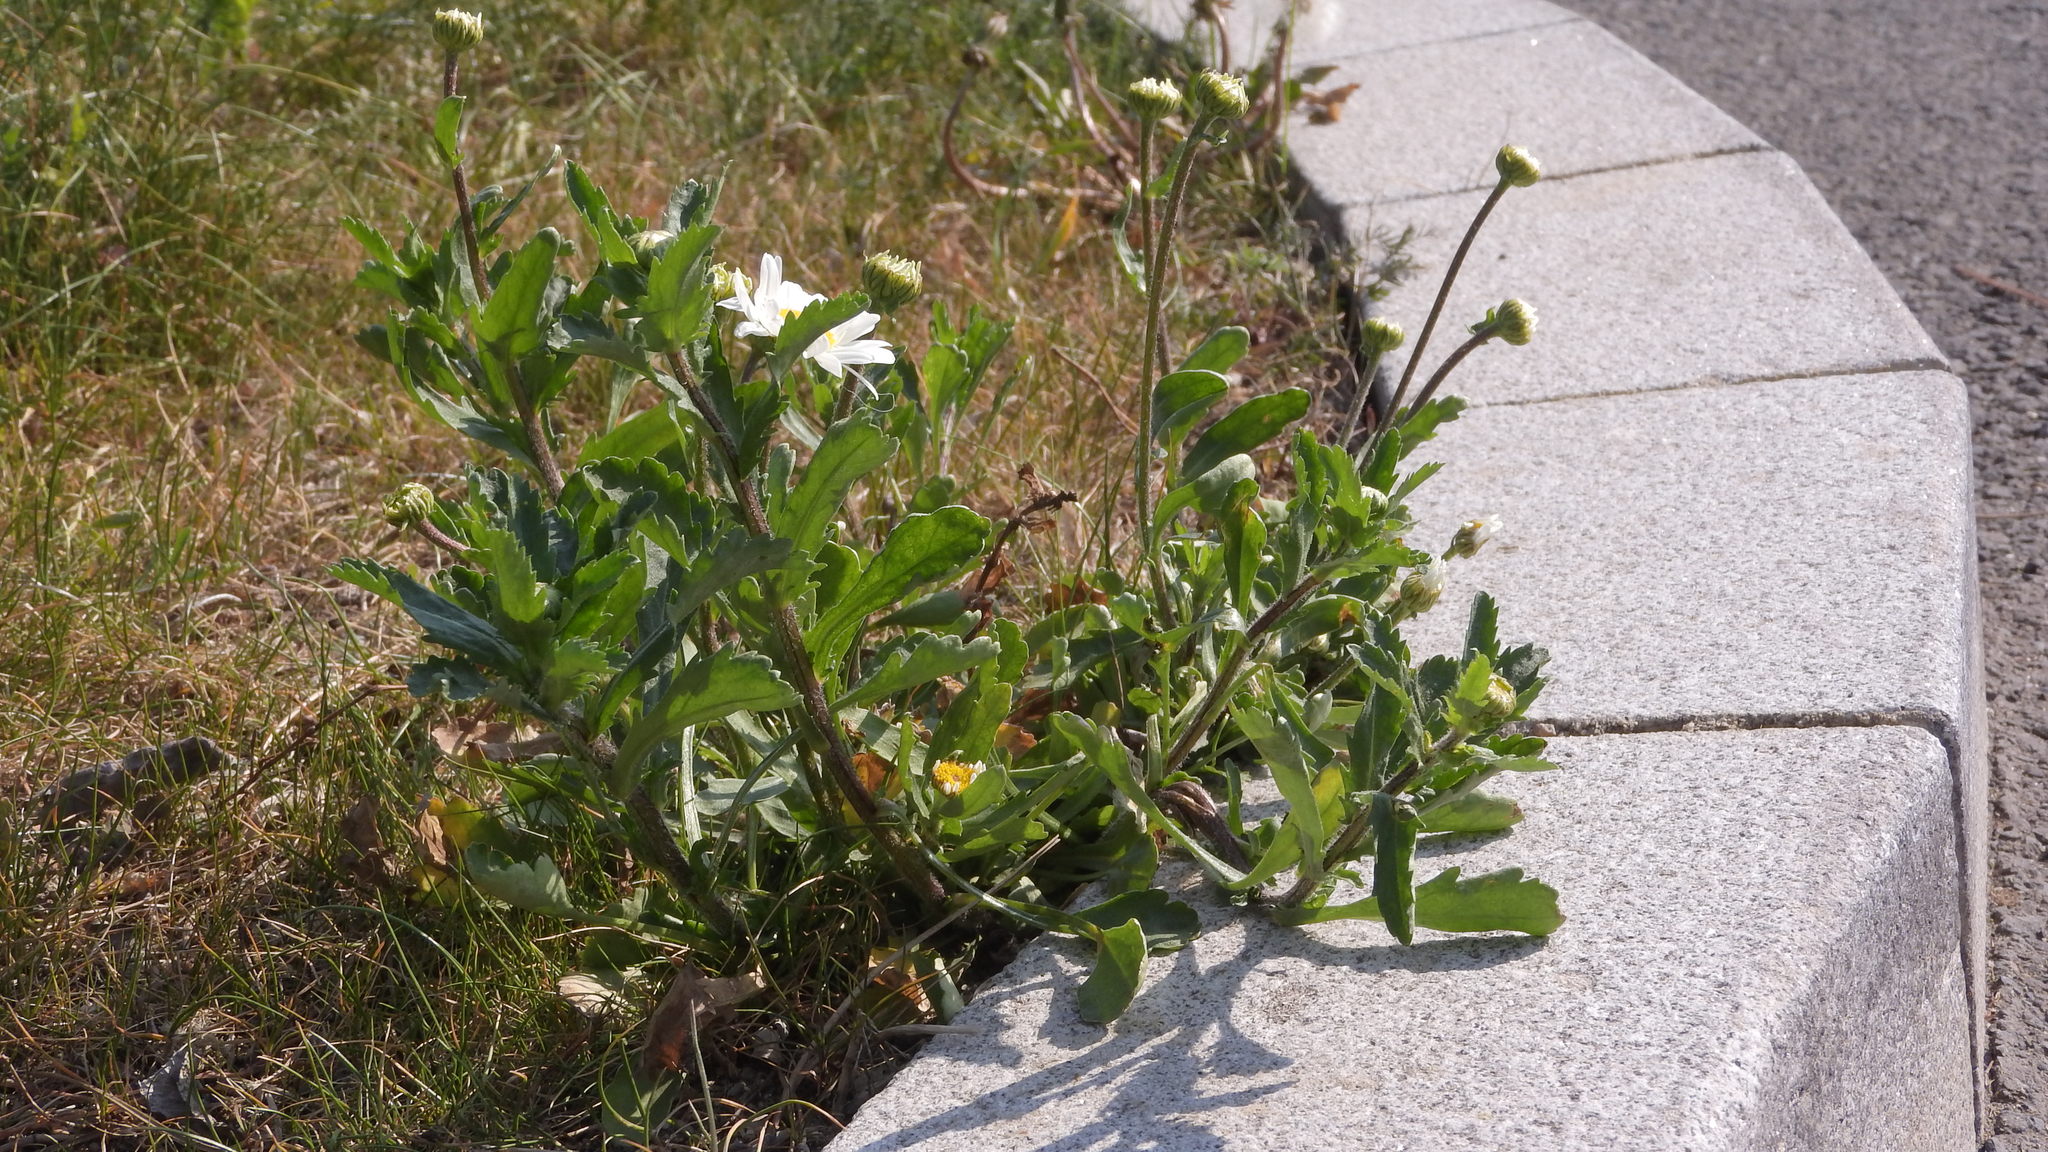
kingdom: Plantae
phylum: Tracheophyta
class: Magnoliopsida
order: Asterales
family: Asteraceae
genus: Leucanthemum
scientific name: Leucanthemum vulgare
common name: Oxeye daisy
